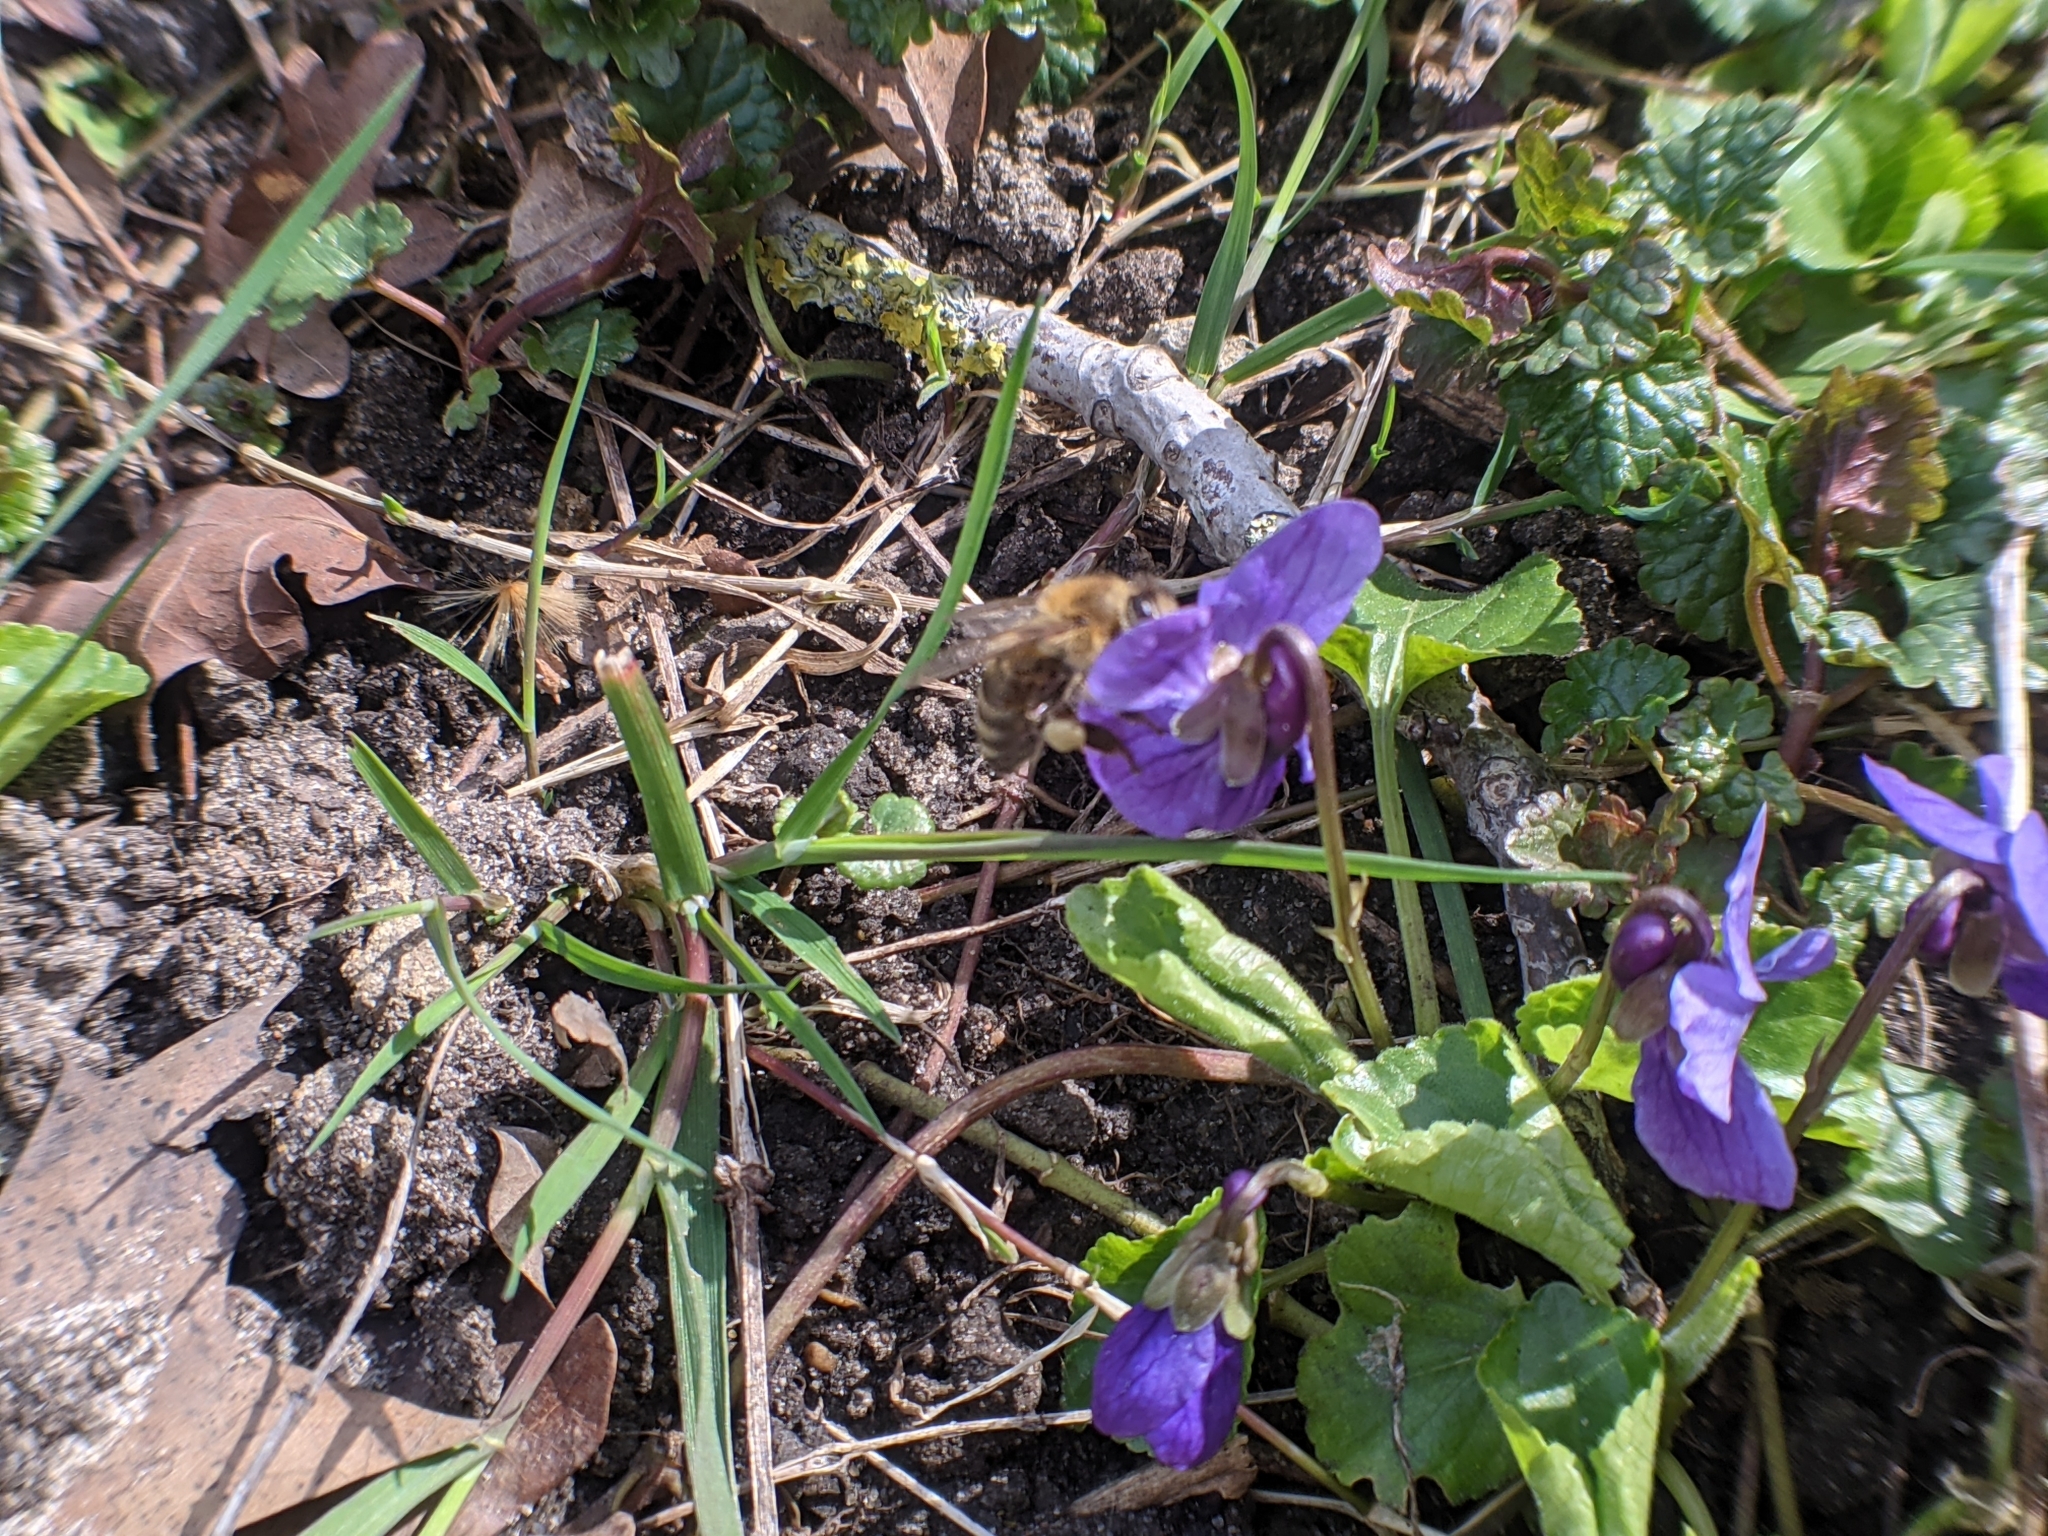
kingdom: Animalia
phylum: Arthropoda
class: Insecta
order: Hymenoptera
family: Apidae
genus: Apis
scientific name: Apis mellifera
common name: Honey bee
